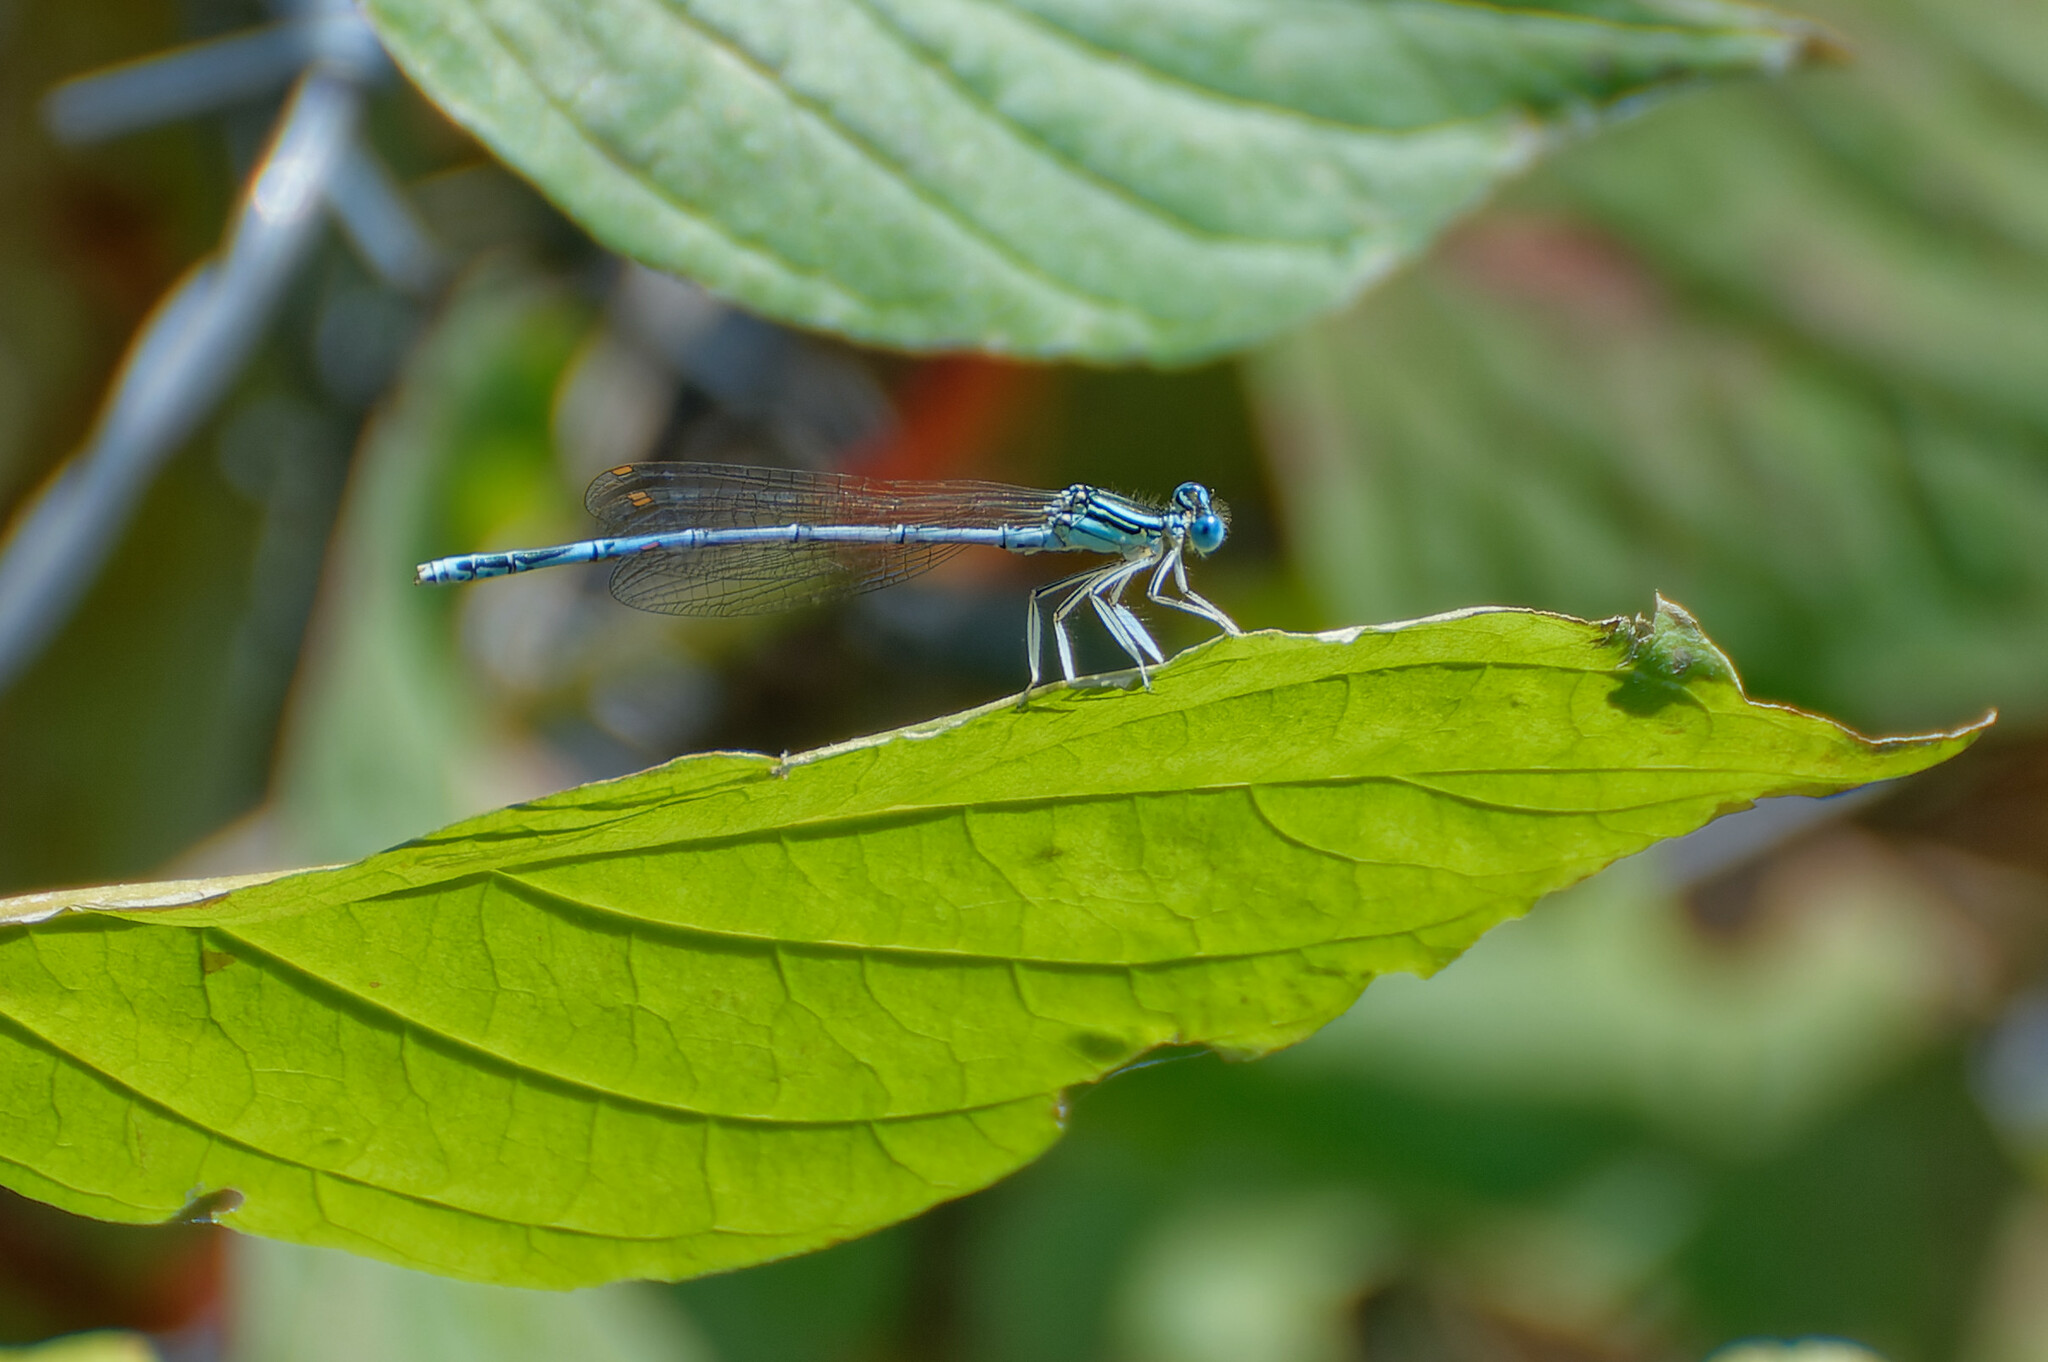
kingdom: Animalia
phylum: Arthropoda
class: Insecta
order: Odonata
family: Platycnemididae
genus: Platycnemis
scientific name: Platycnemis pennipes
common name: White-legged damselfly
